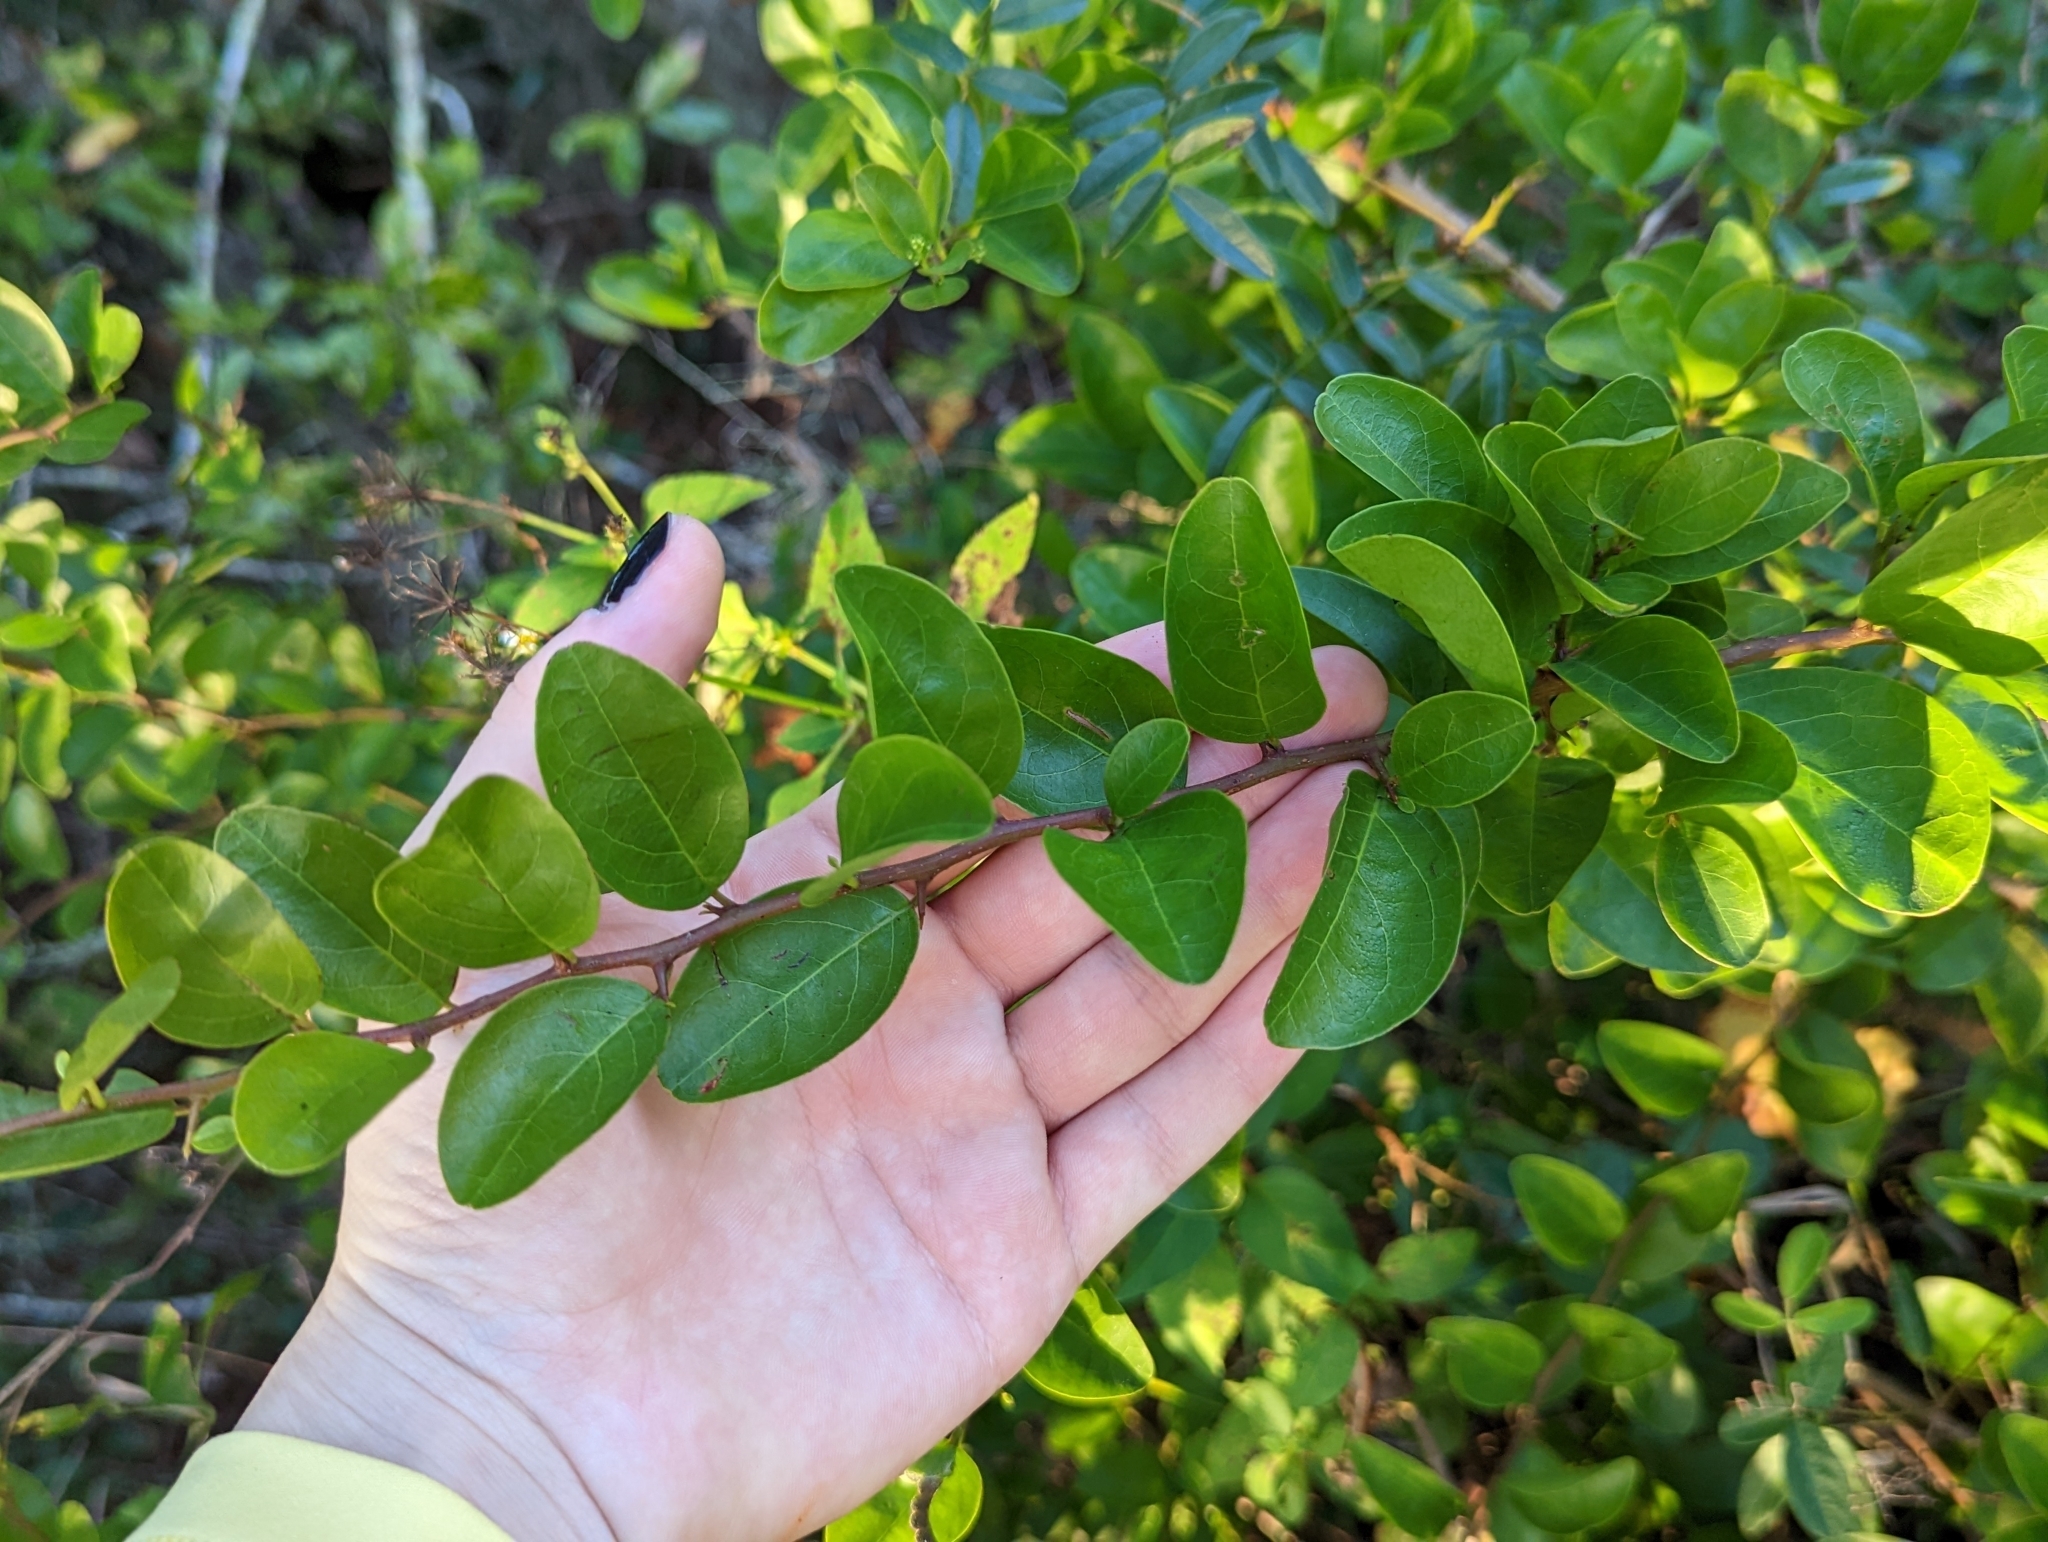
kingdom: Plantae
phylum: Tracheophyta
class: Magnoliopsida
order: Santalales
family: Ximeniaceae
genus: Ximenia
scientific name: Ximenia americana
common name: Tallowwood
